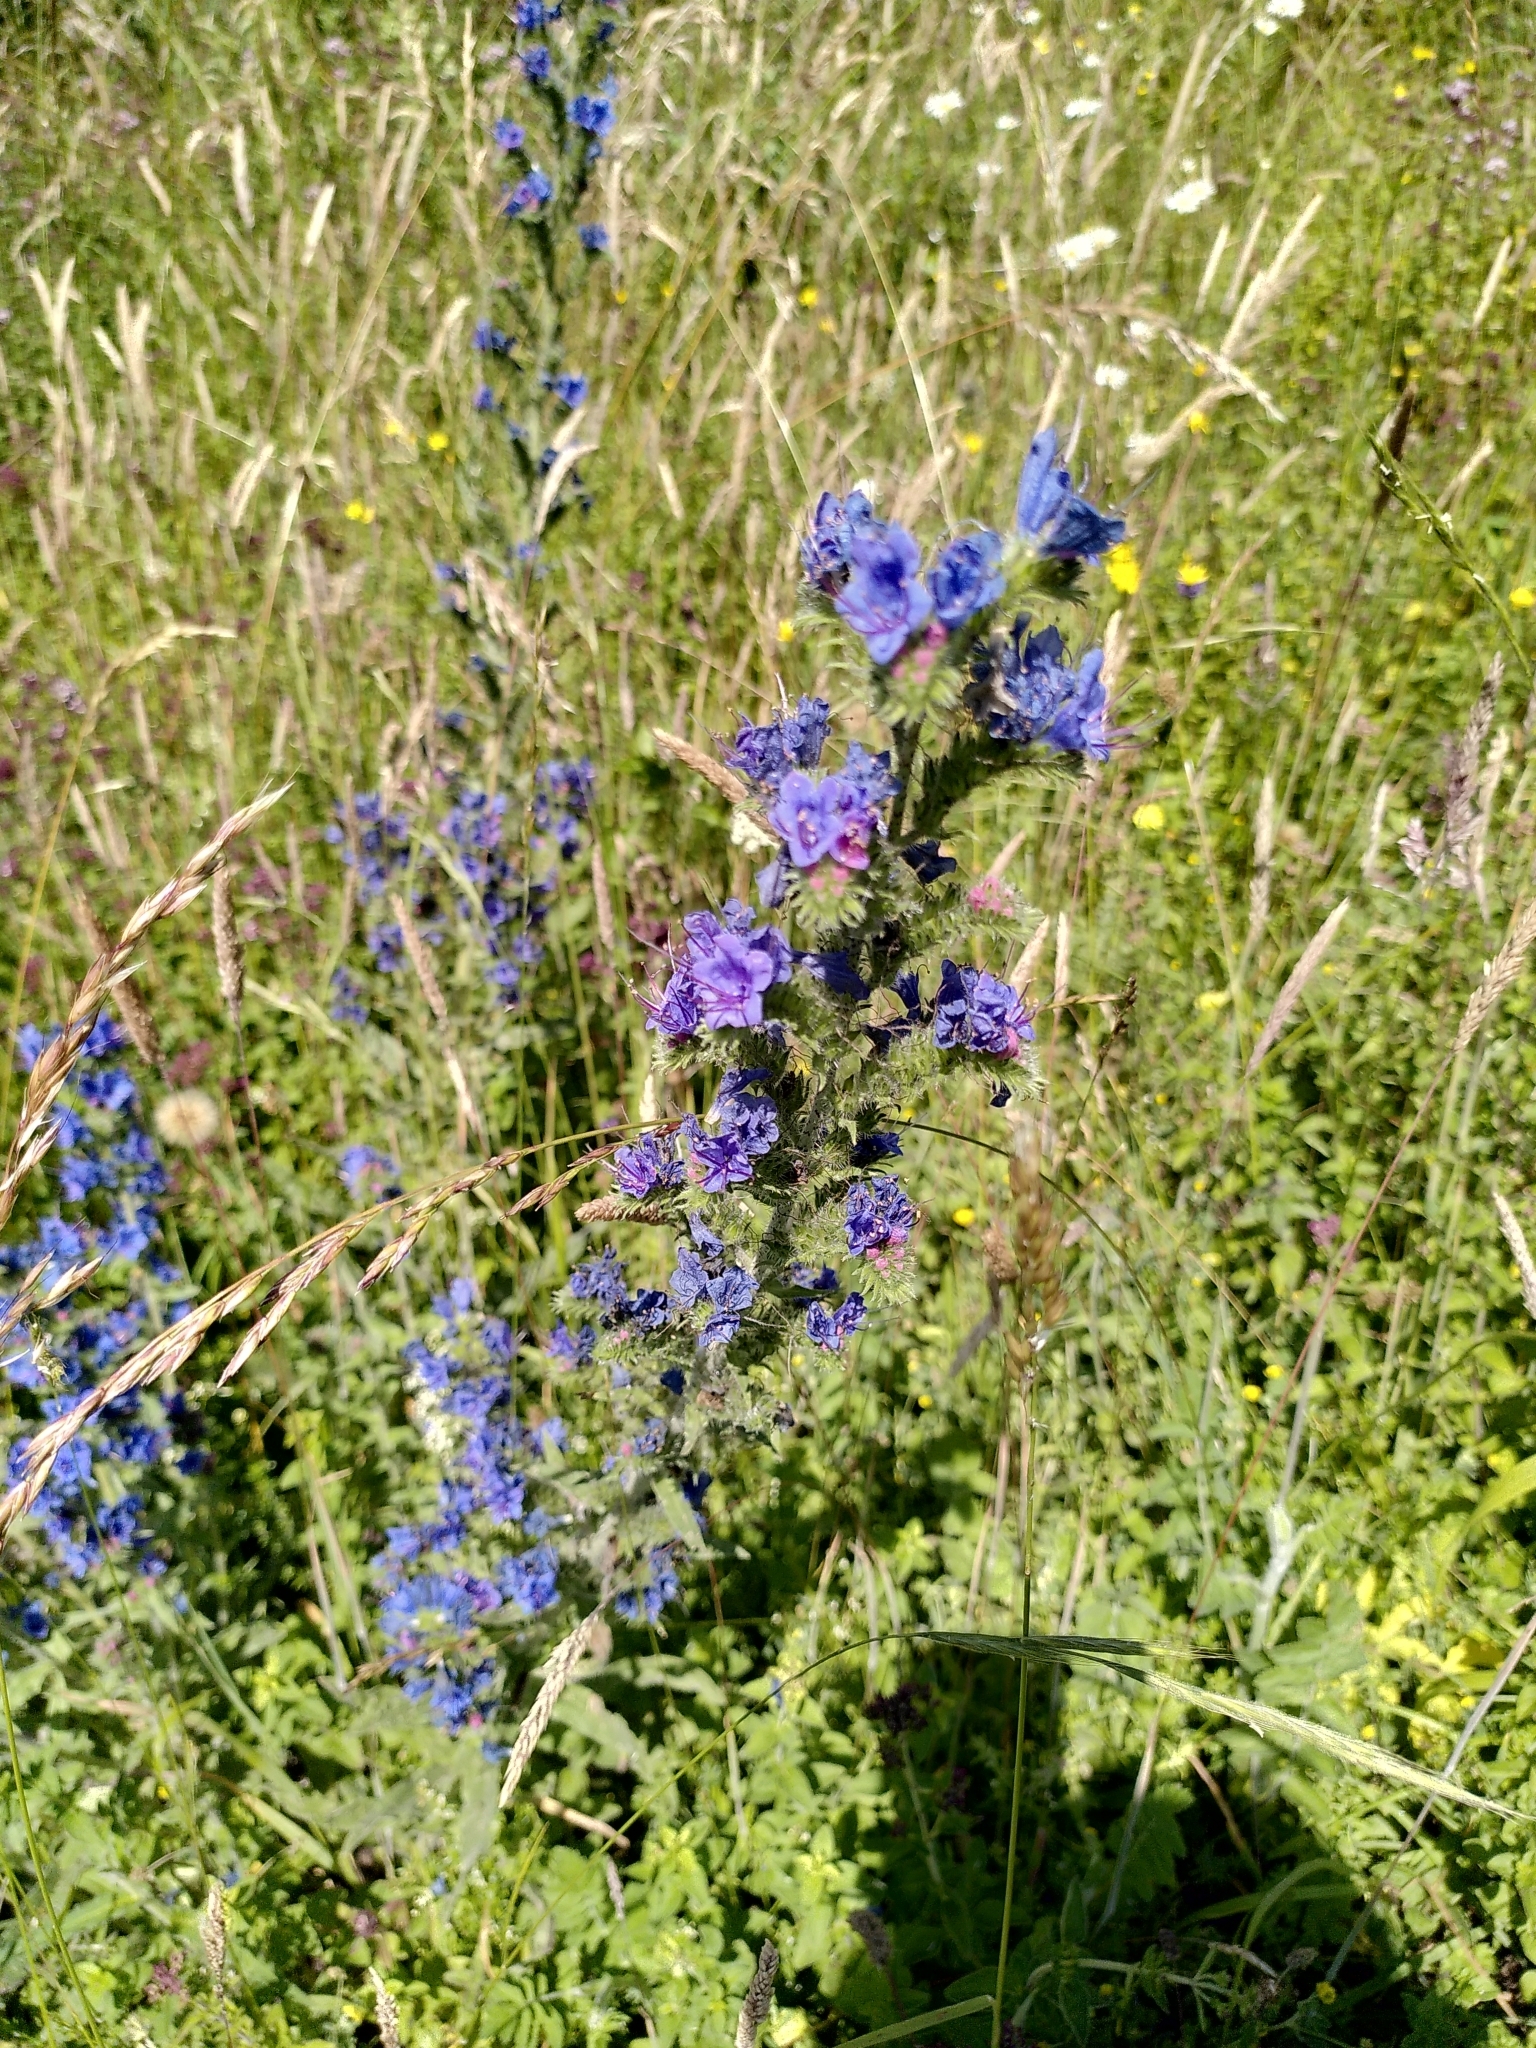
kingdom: Plantae
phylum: Tracheophyta
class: Magnoliopsida
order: Boraginales
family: Boraginaceae
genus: Echium
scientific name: Echium vulgare
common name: Common viper's bugloss
